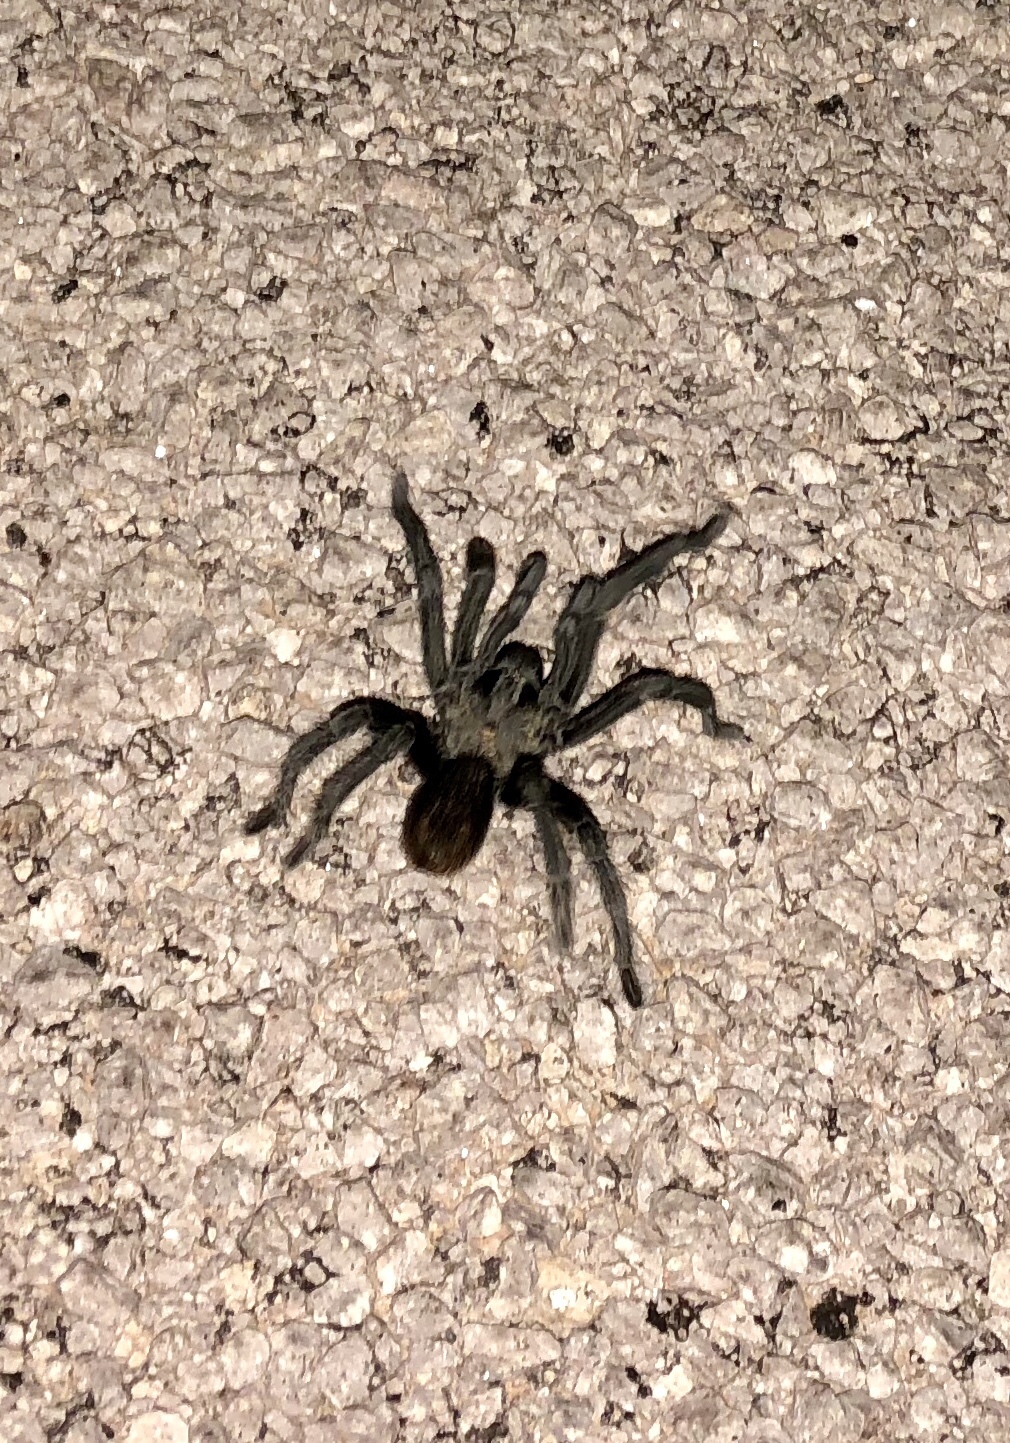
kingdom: Animalia
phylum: Arthropoda
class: Arachnida
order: Araneae
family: Theraphosidae
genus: Aphonopelma
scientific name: Aphonopelma gabeli
